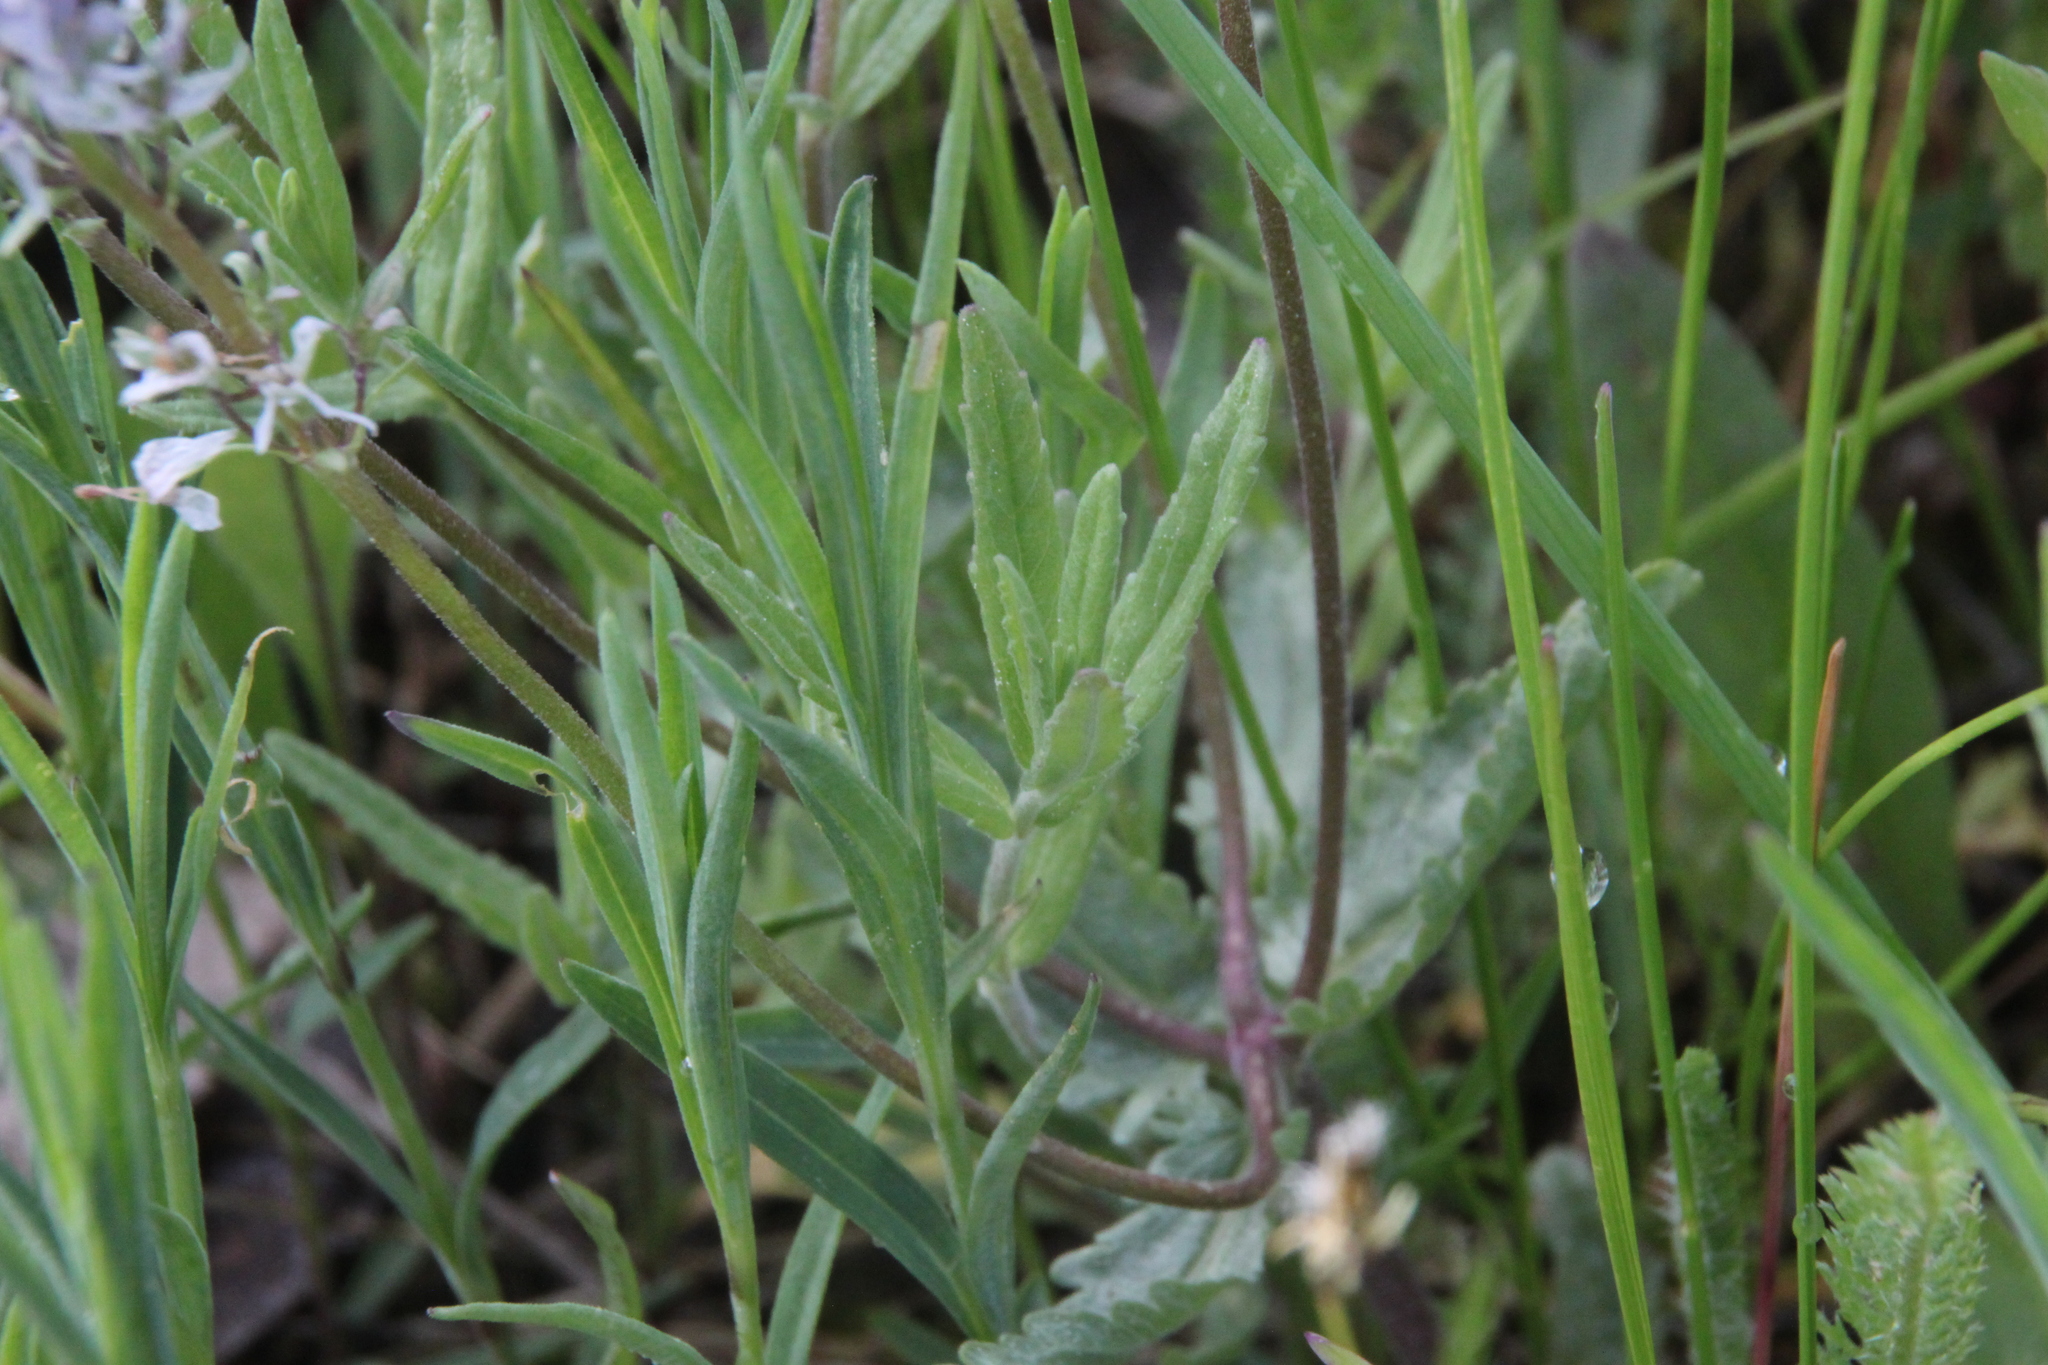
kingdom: Plantae
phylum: Tracheophyta
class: Magnoliopsida
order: Lamiales
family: Plantaginaceae
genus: Veronica
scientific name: Veronica prostrata
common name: Prostrate speedwell
